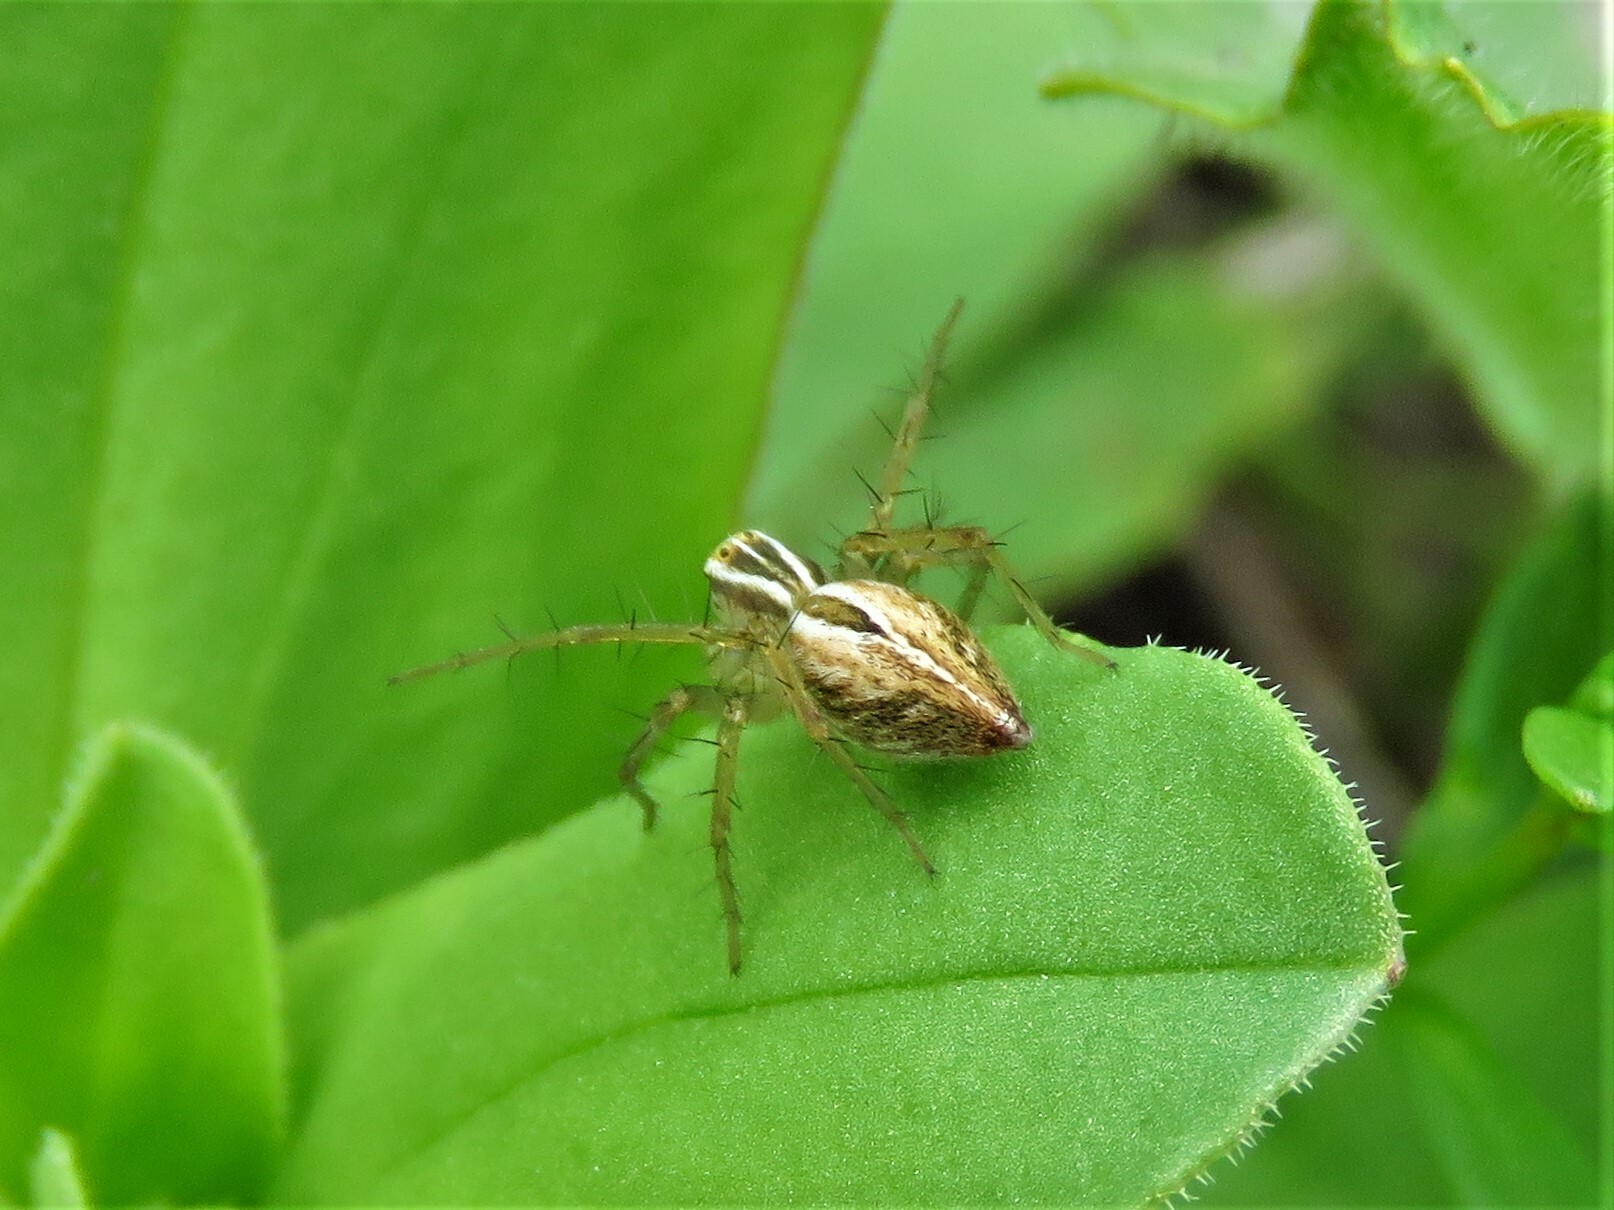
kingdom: Animalia
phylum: Arthropoda
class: Arachnida
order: Araneae
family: Oxyopidae
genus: Oxyopes
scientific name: Oxyopes salticus
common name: Lynx spiders
